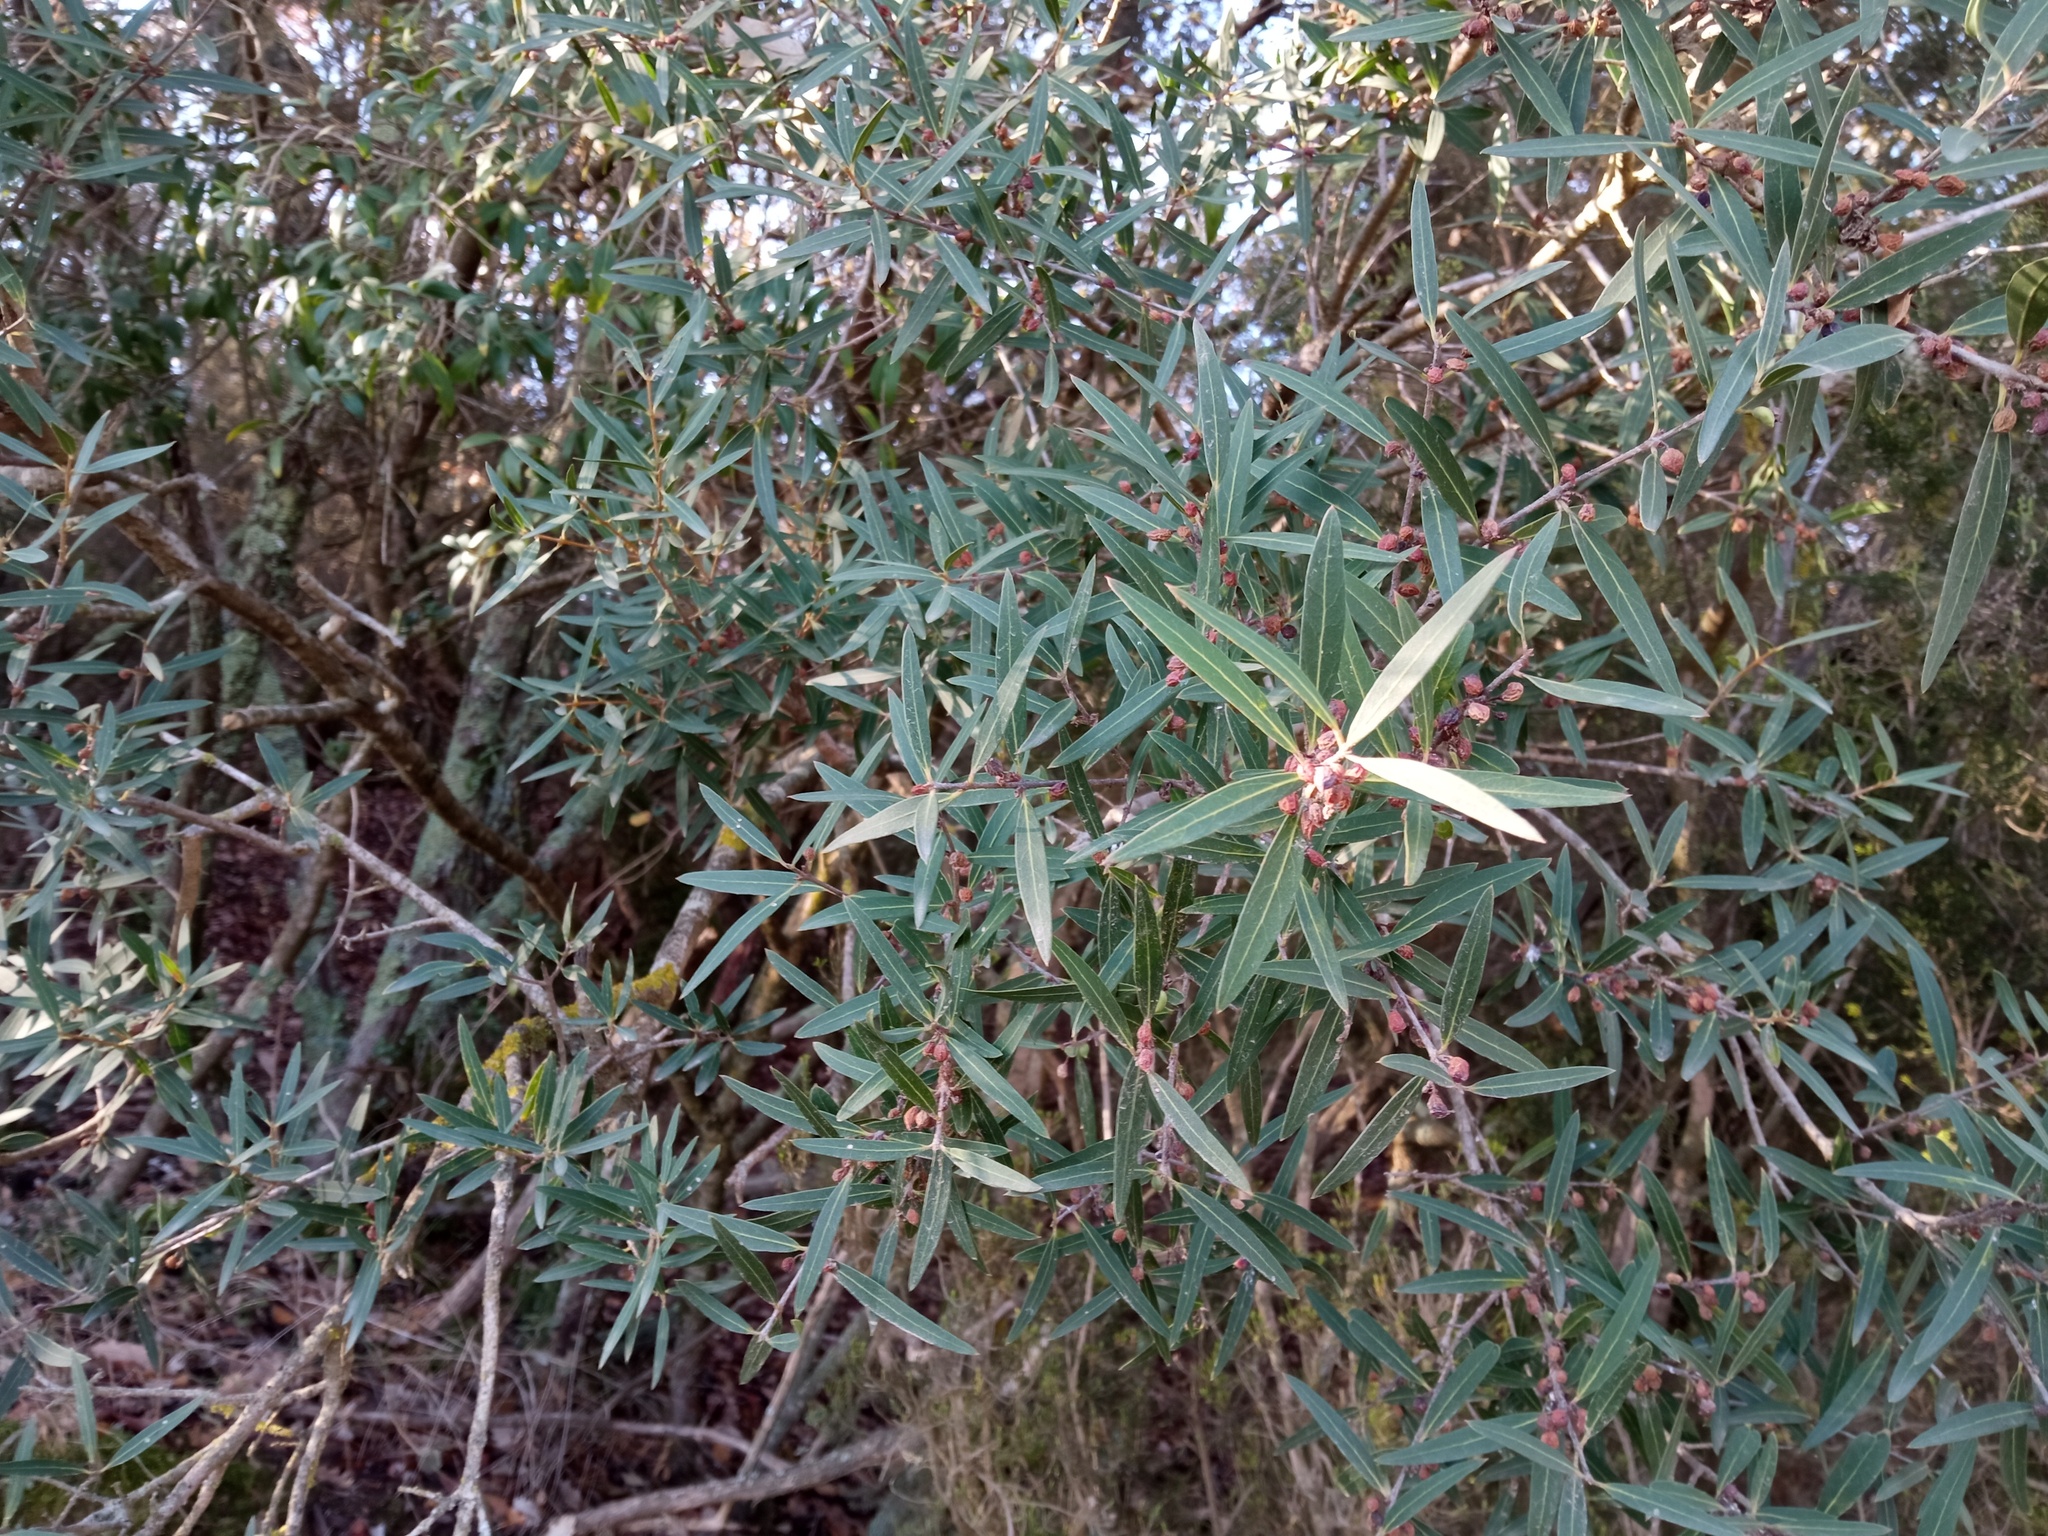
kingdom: Plantae
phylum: Tracheophyta
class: Magnoliopsida
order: Lamiales
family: Oleaceae
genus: Phillyrea
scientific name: Phillyrea angustifolia
